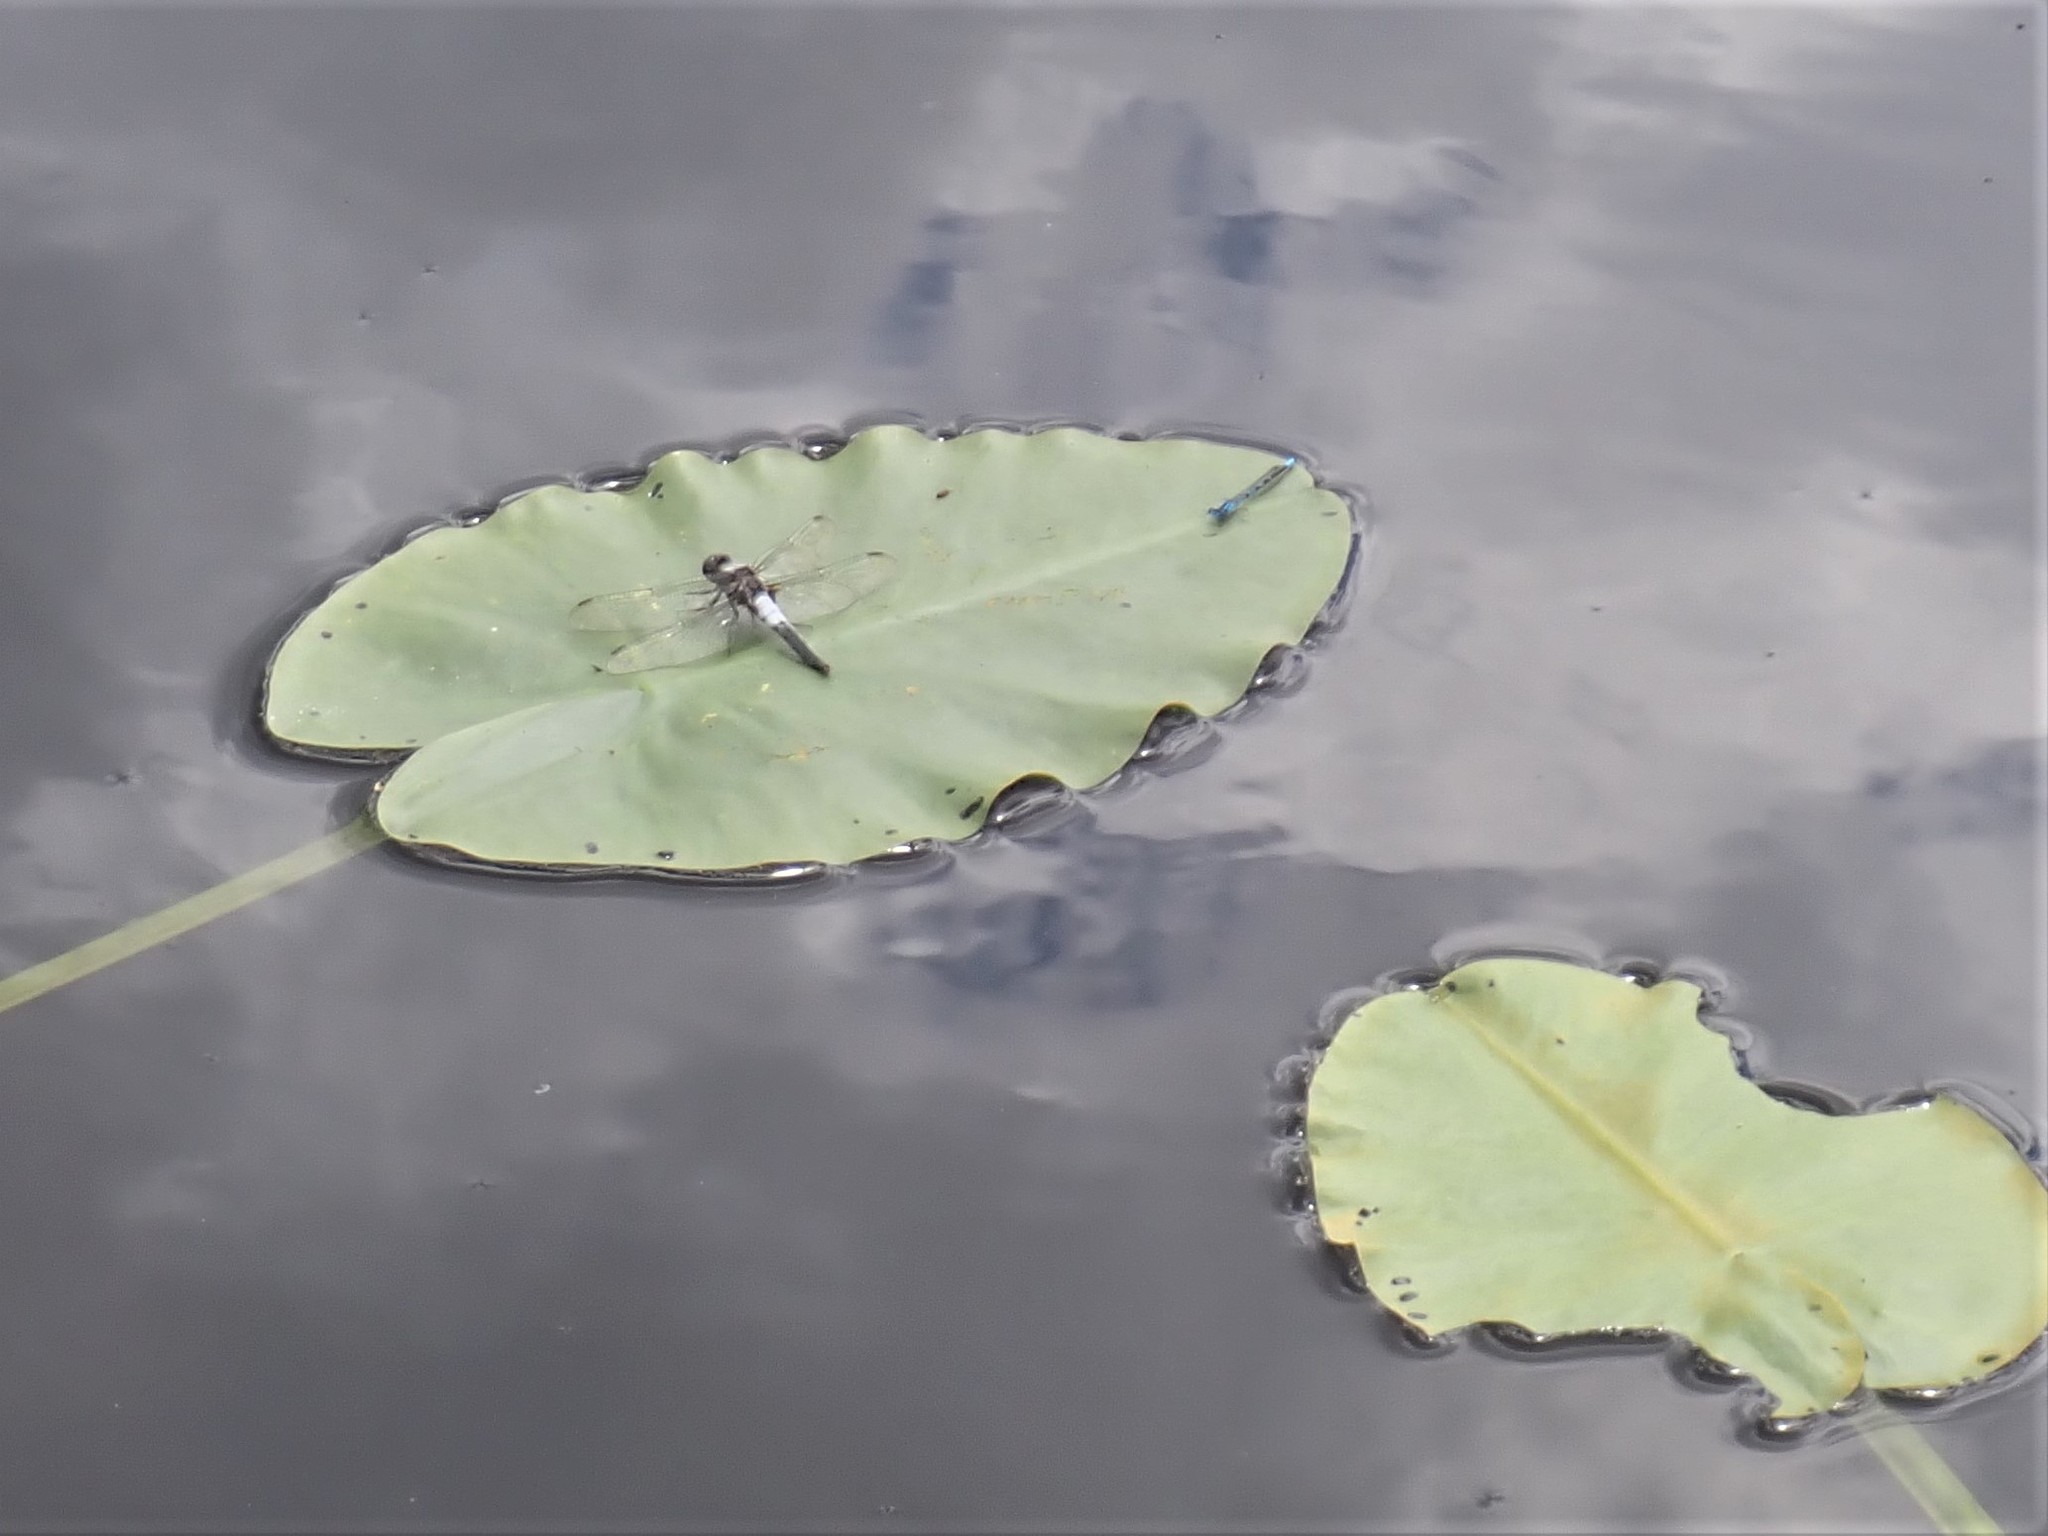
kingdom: Animalia
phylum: Arthropoda
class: Insecta
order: Odonata
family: Libellulidae
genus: Ladona
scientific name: Ladona julia
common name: Chalk-fronted corporal
